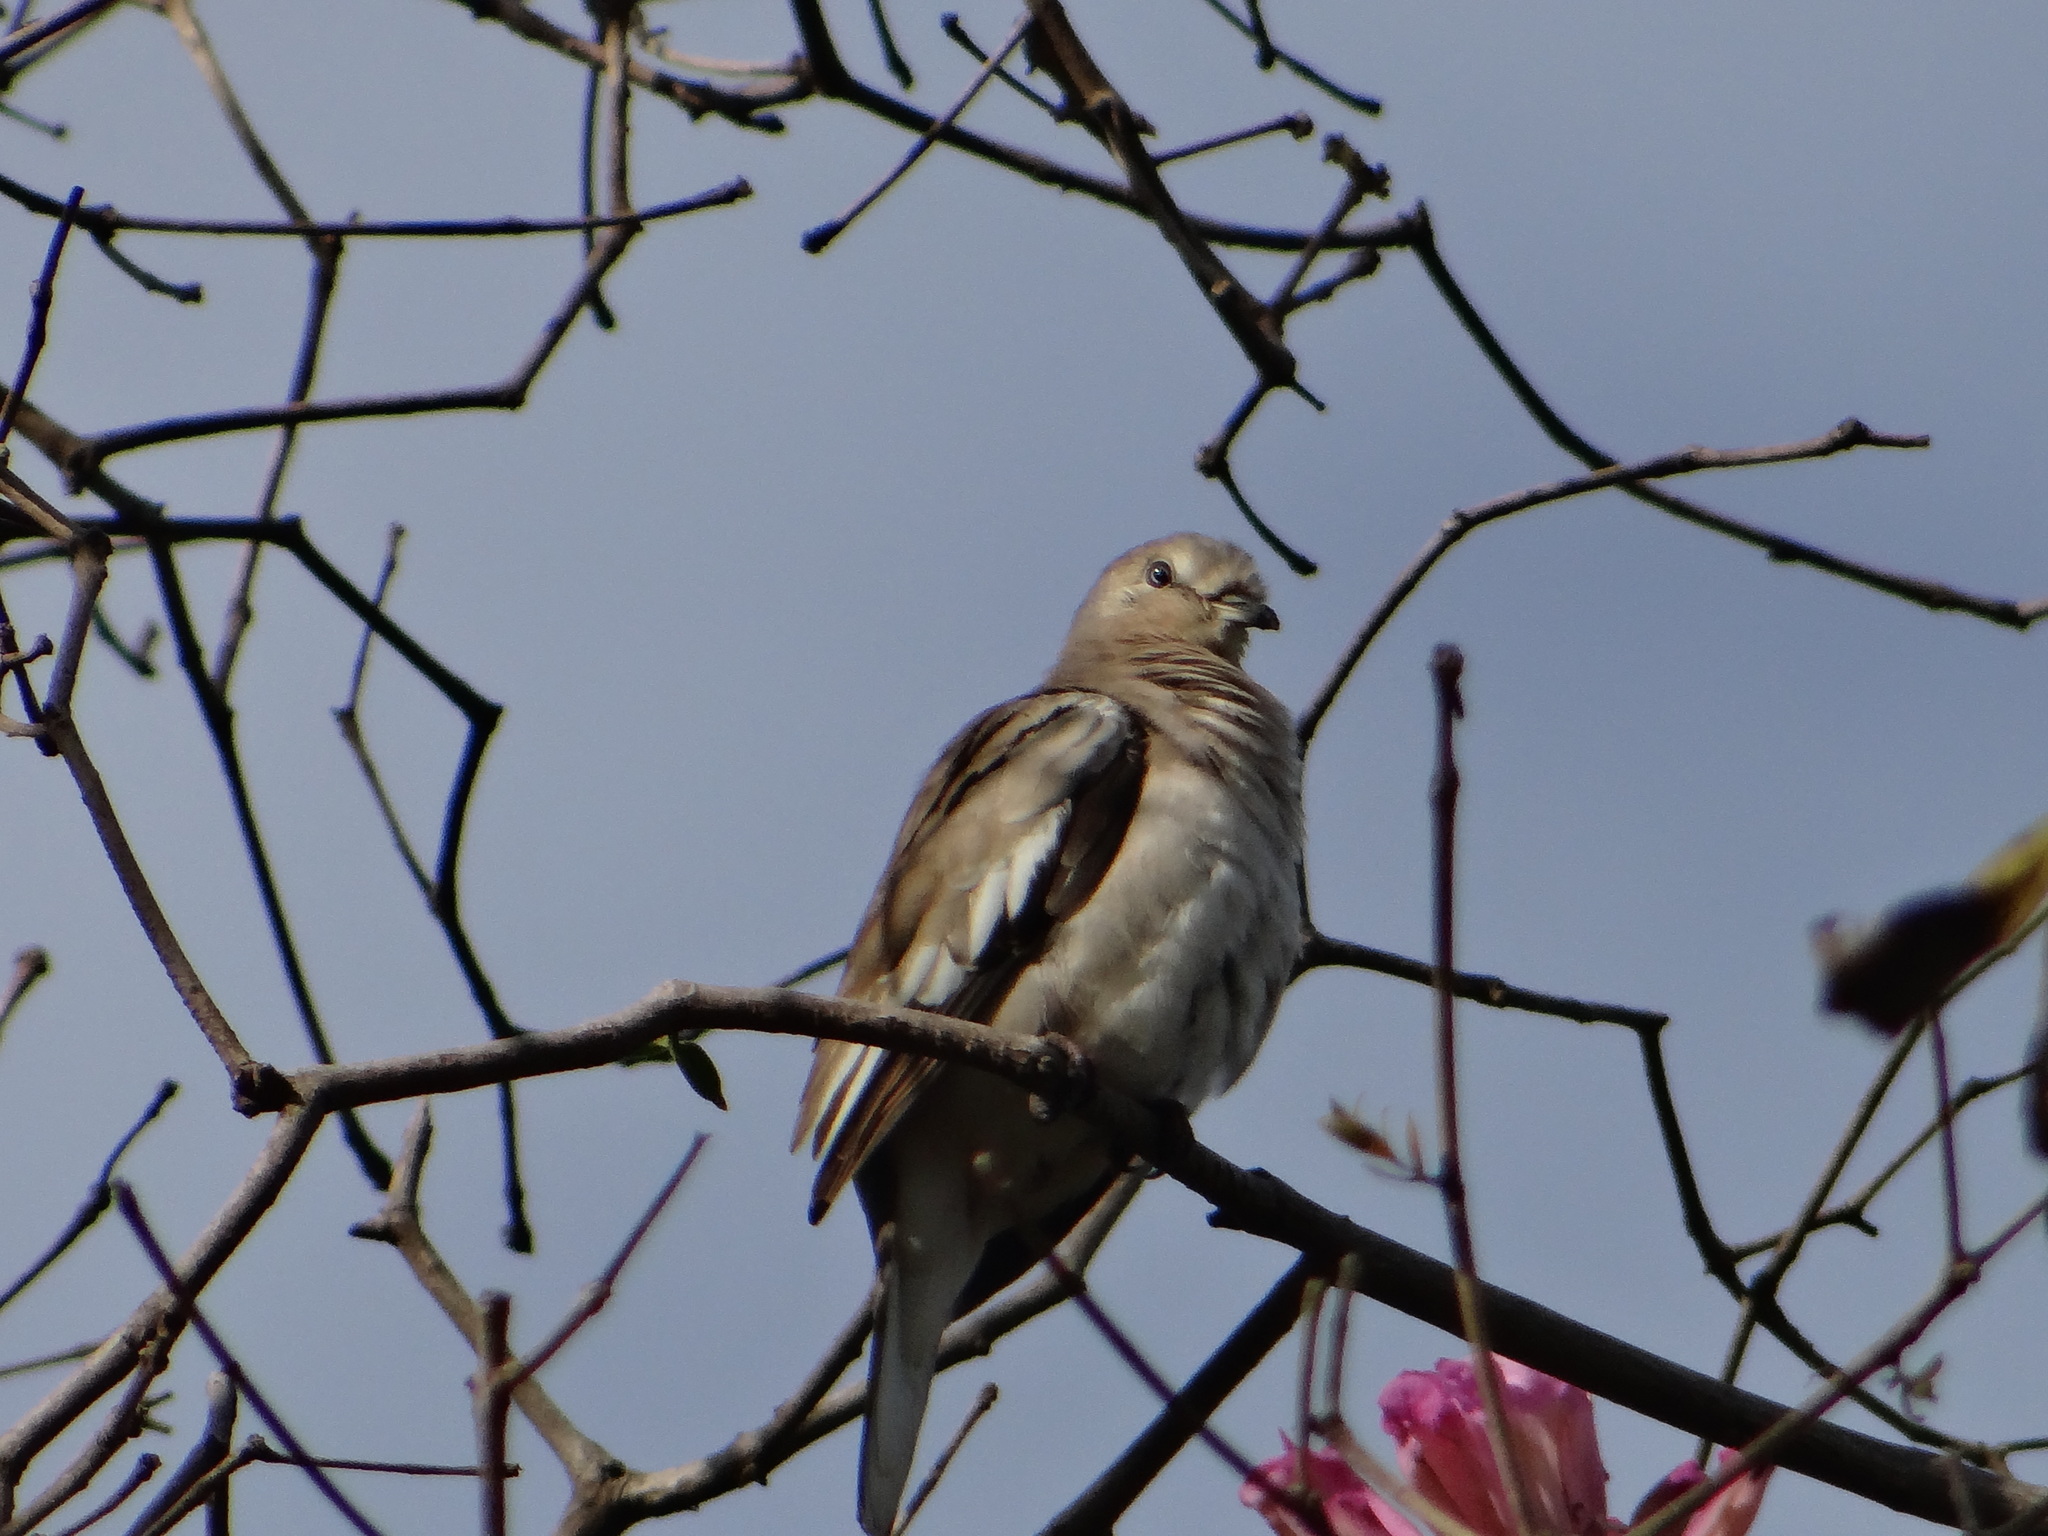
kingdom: Animalia
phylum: Chordata
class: Aves
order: Columbiformes
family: Columbidae
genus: Columbina
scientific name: Columbina picui
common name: Picui ground dove
